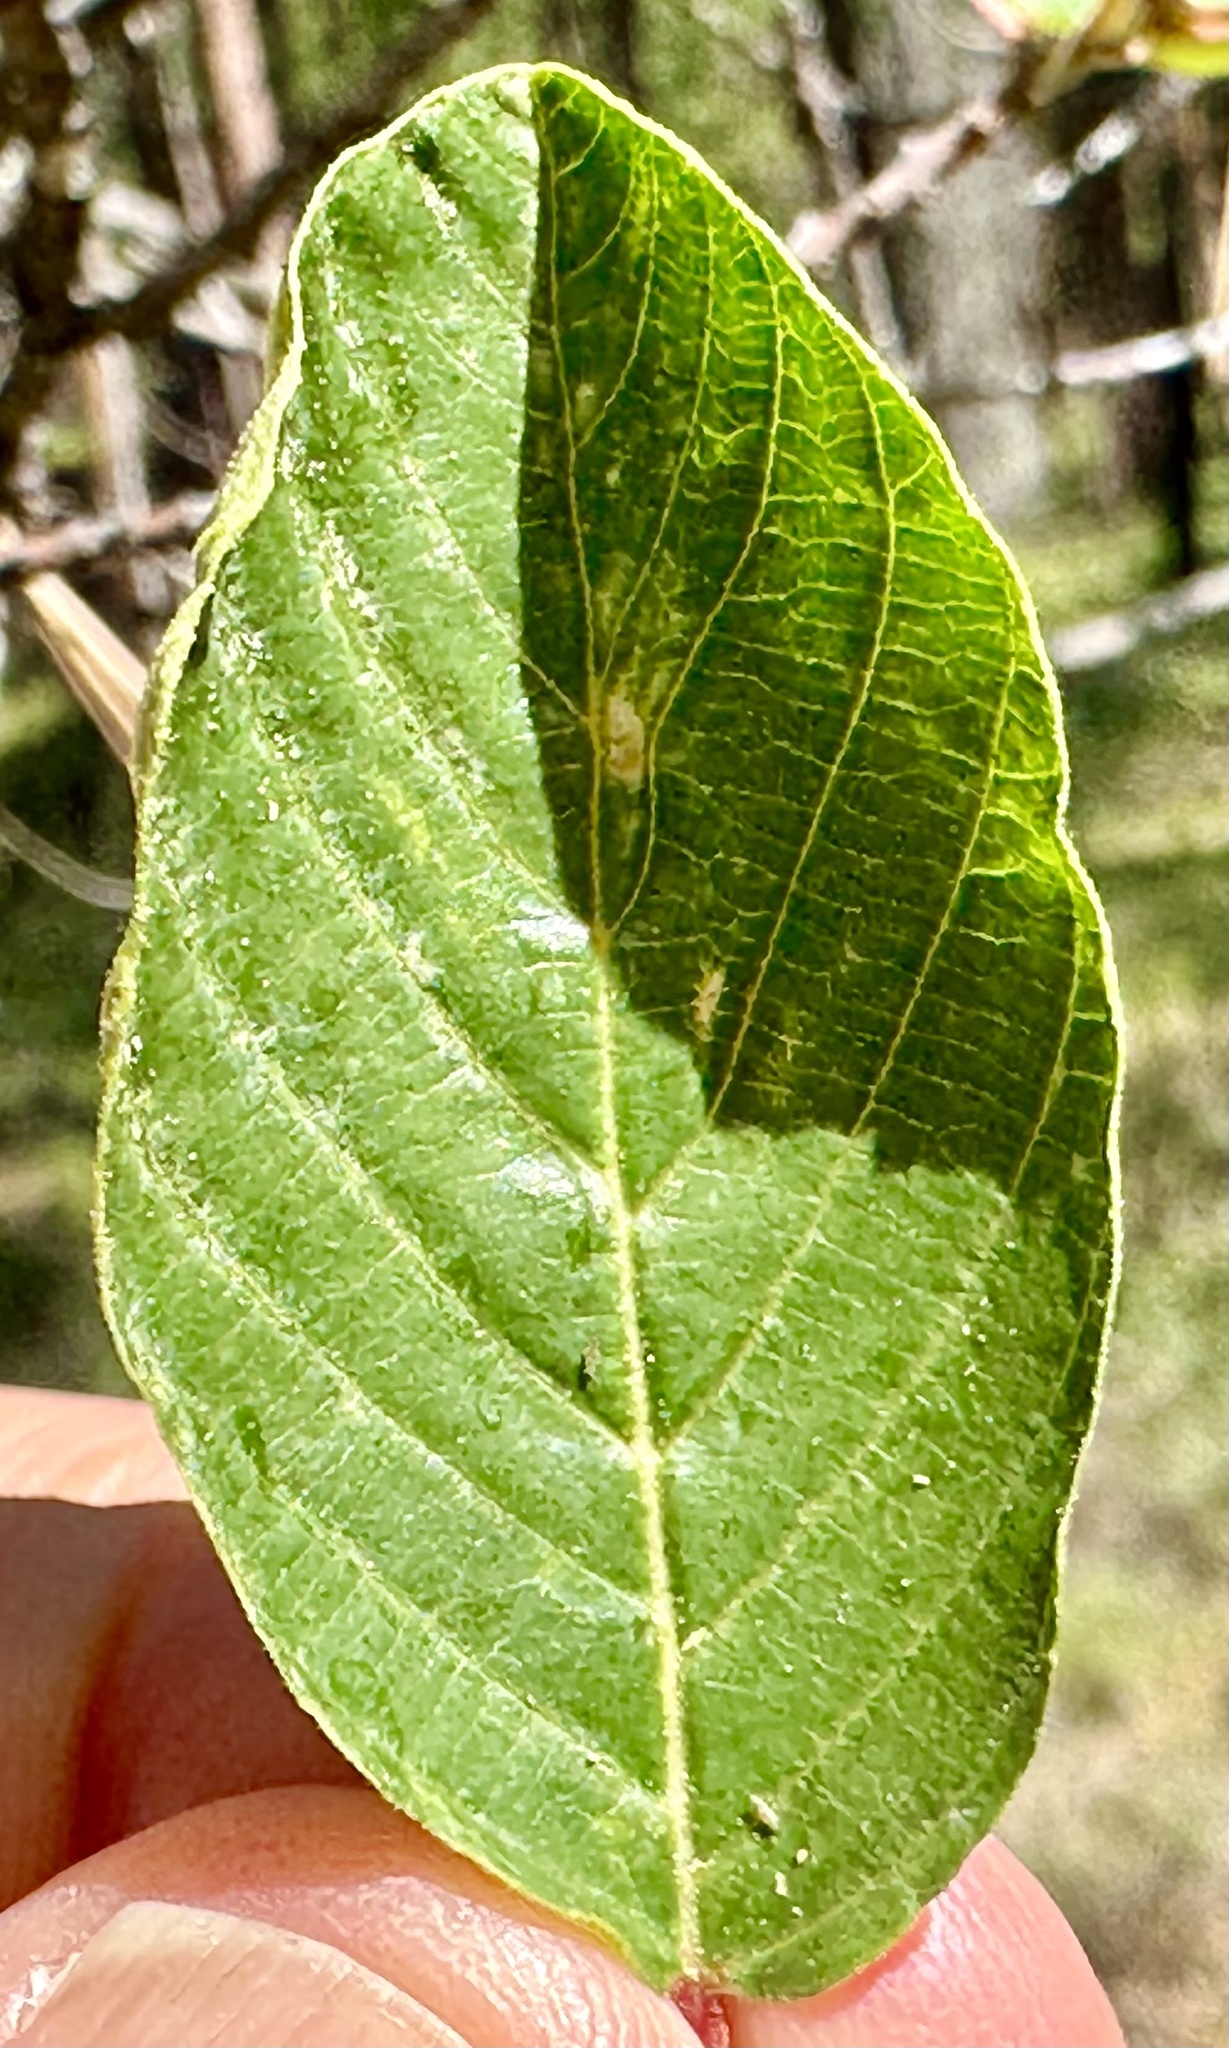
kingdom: Plantae
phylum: Tracheophyta
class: Magnoliopsida
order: Rosales
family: Rhamnaceae
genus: Frangula
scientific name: Frangula purshiana
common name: Cascara buckthorn
